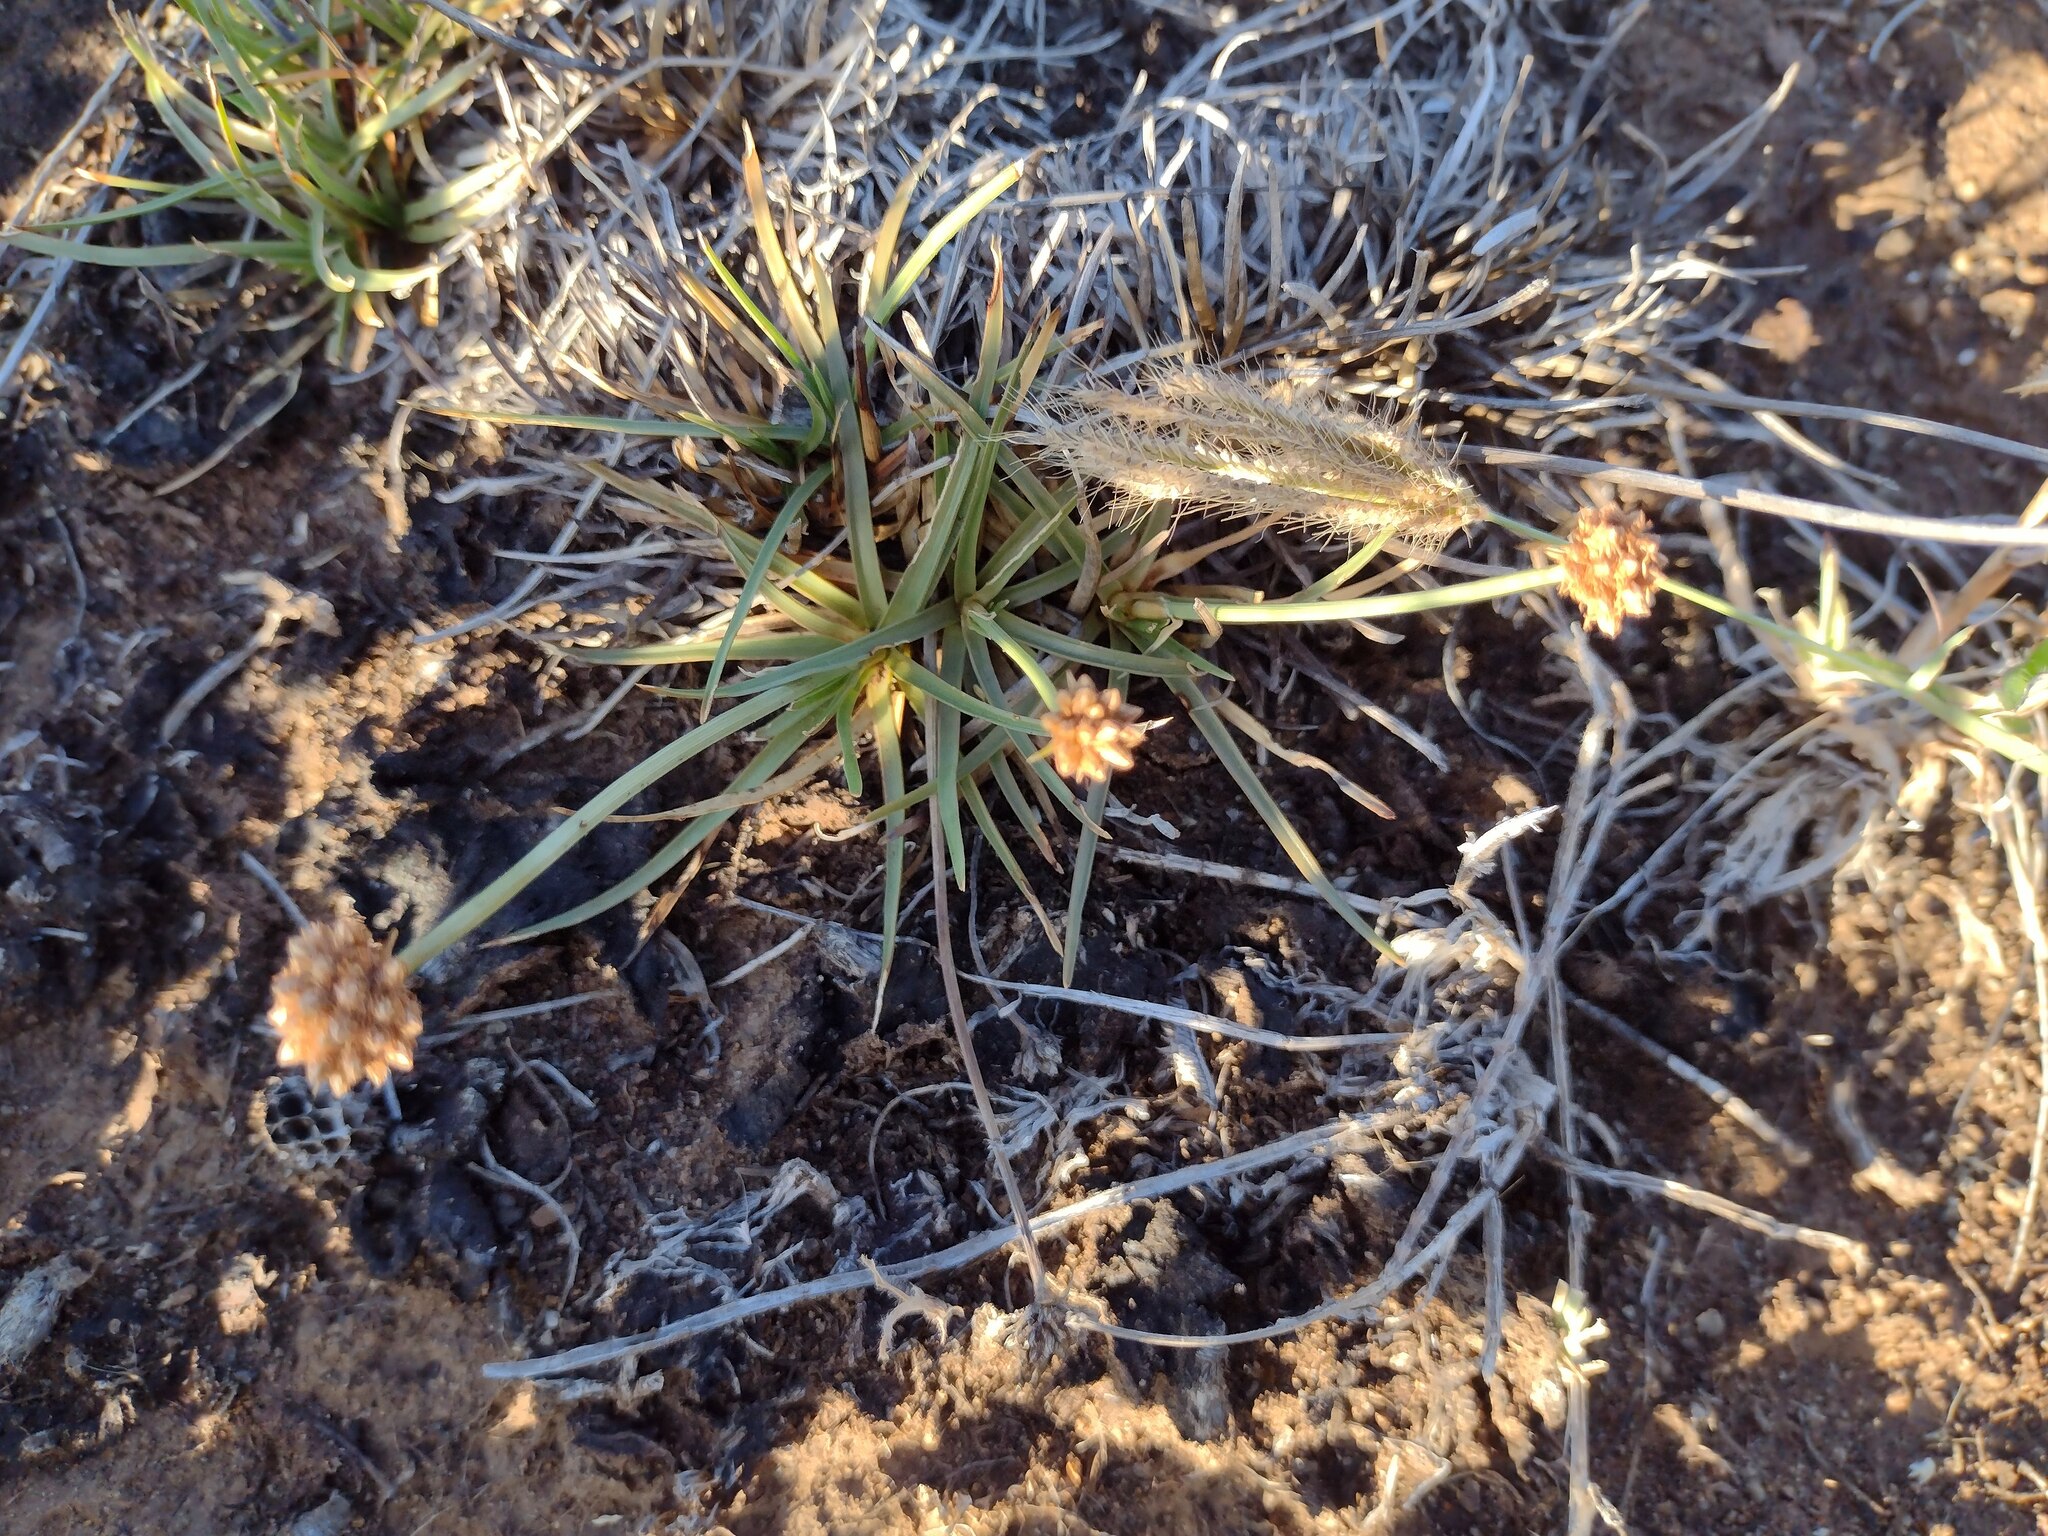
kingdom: Plantae
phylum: Tracheophyta
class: Liliopsida
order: Poales
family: Cyperaceae
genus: Fimbristylis
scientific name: Fimbristylis cymosa
